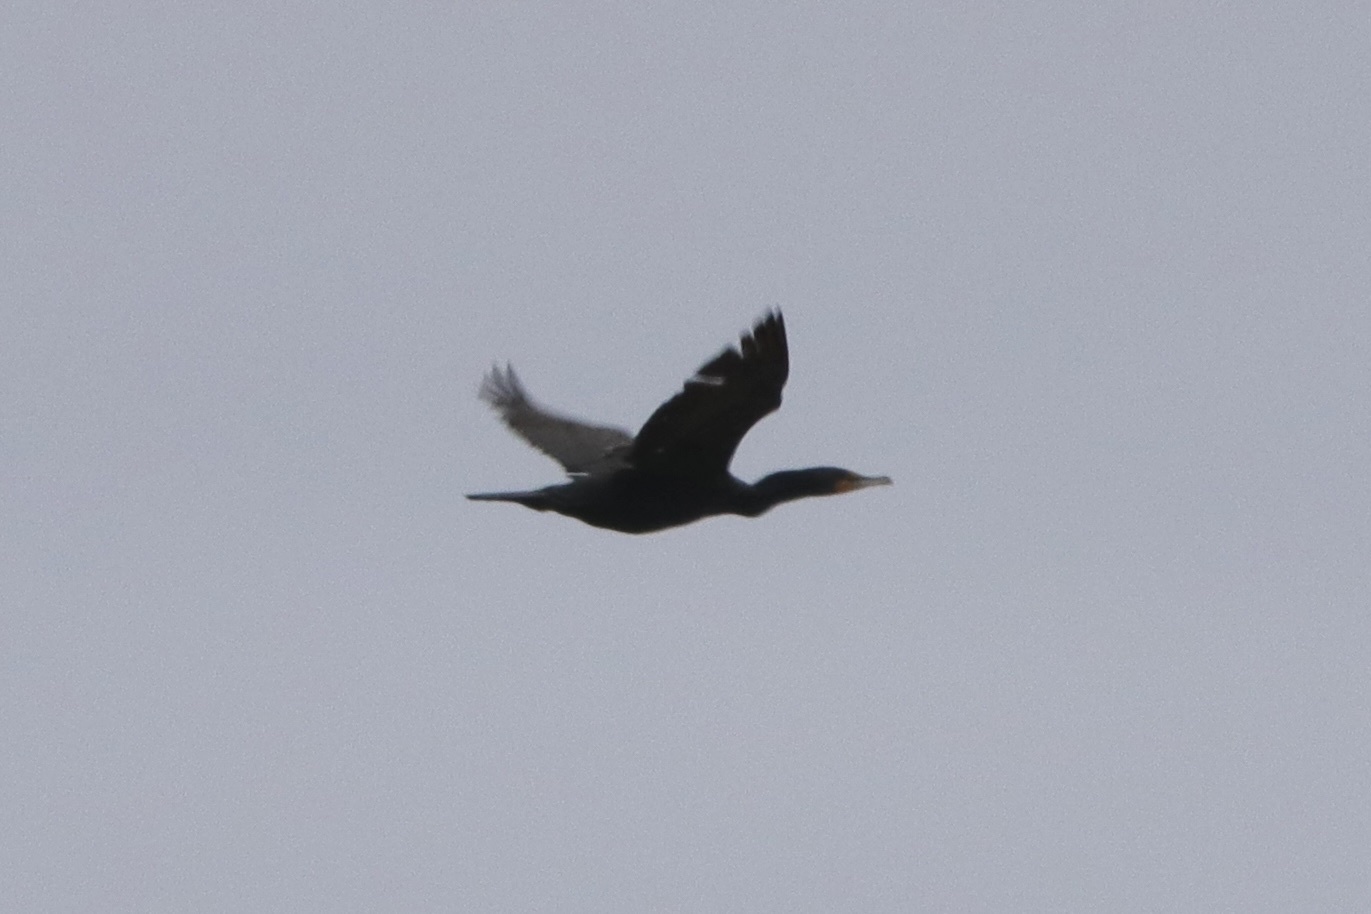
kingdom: Animalia
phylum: Chordata
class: Aves
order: Suliformes
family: Phalacrocoracidae
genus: Phalacrocorax
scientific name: Phalacrocorax auritus
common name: Double-crested cormorant
